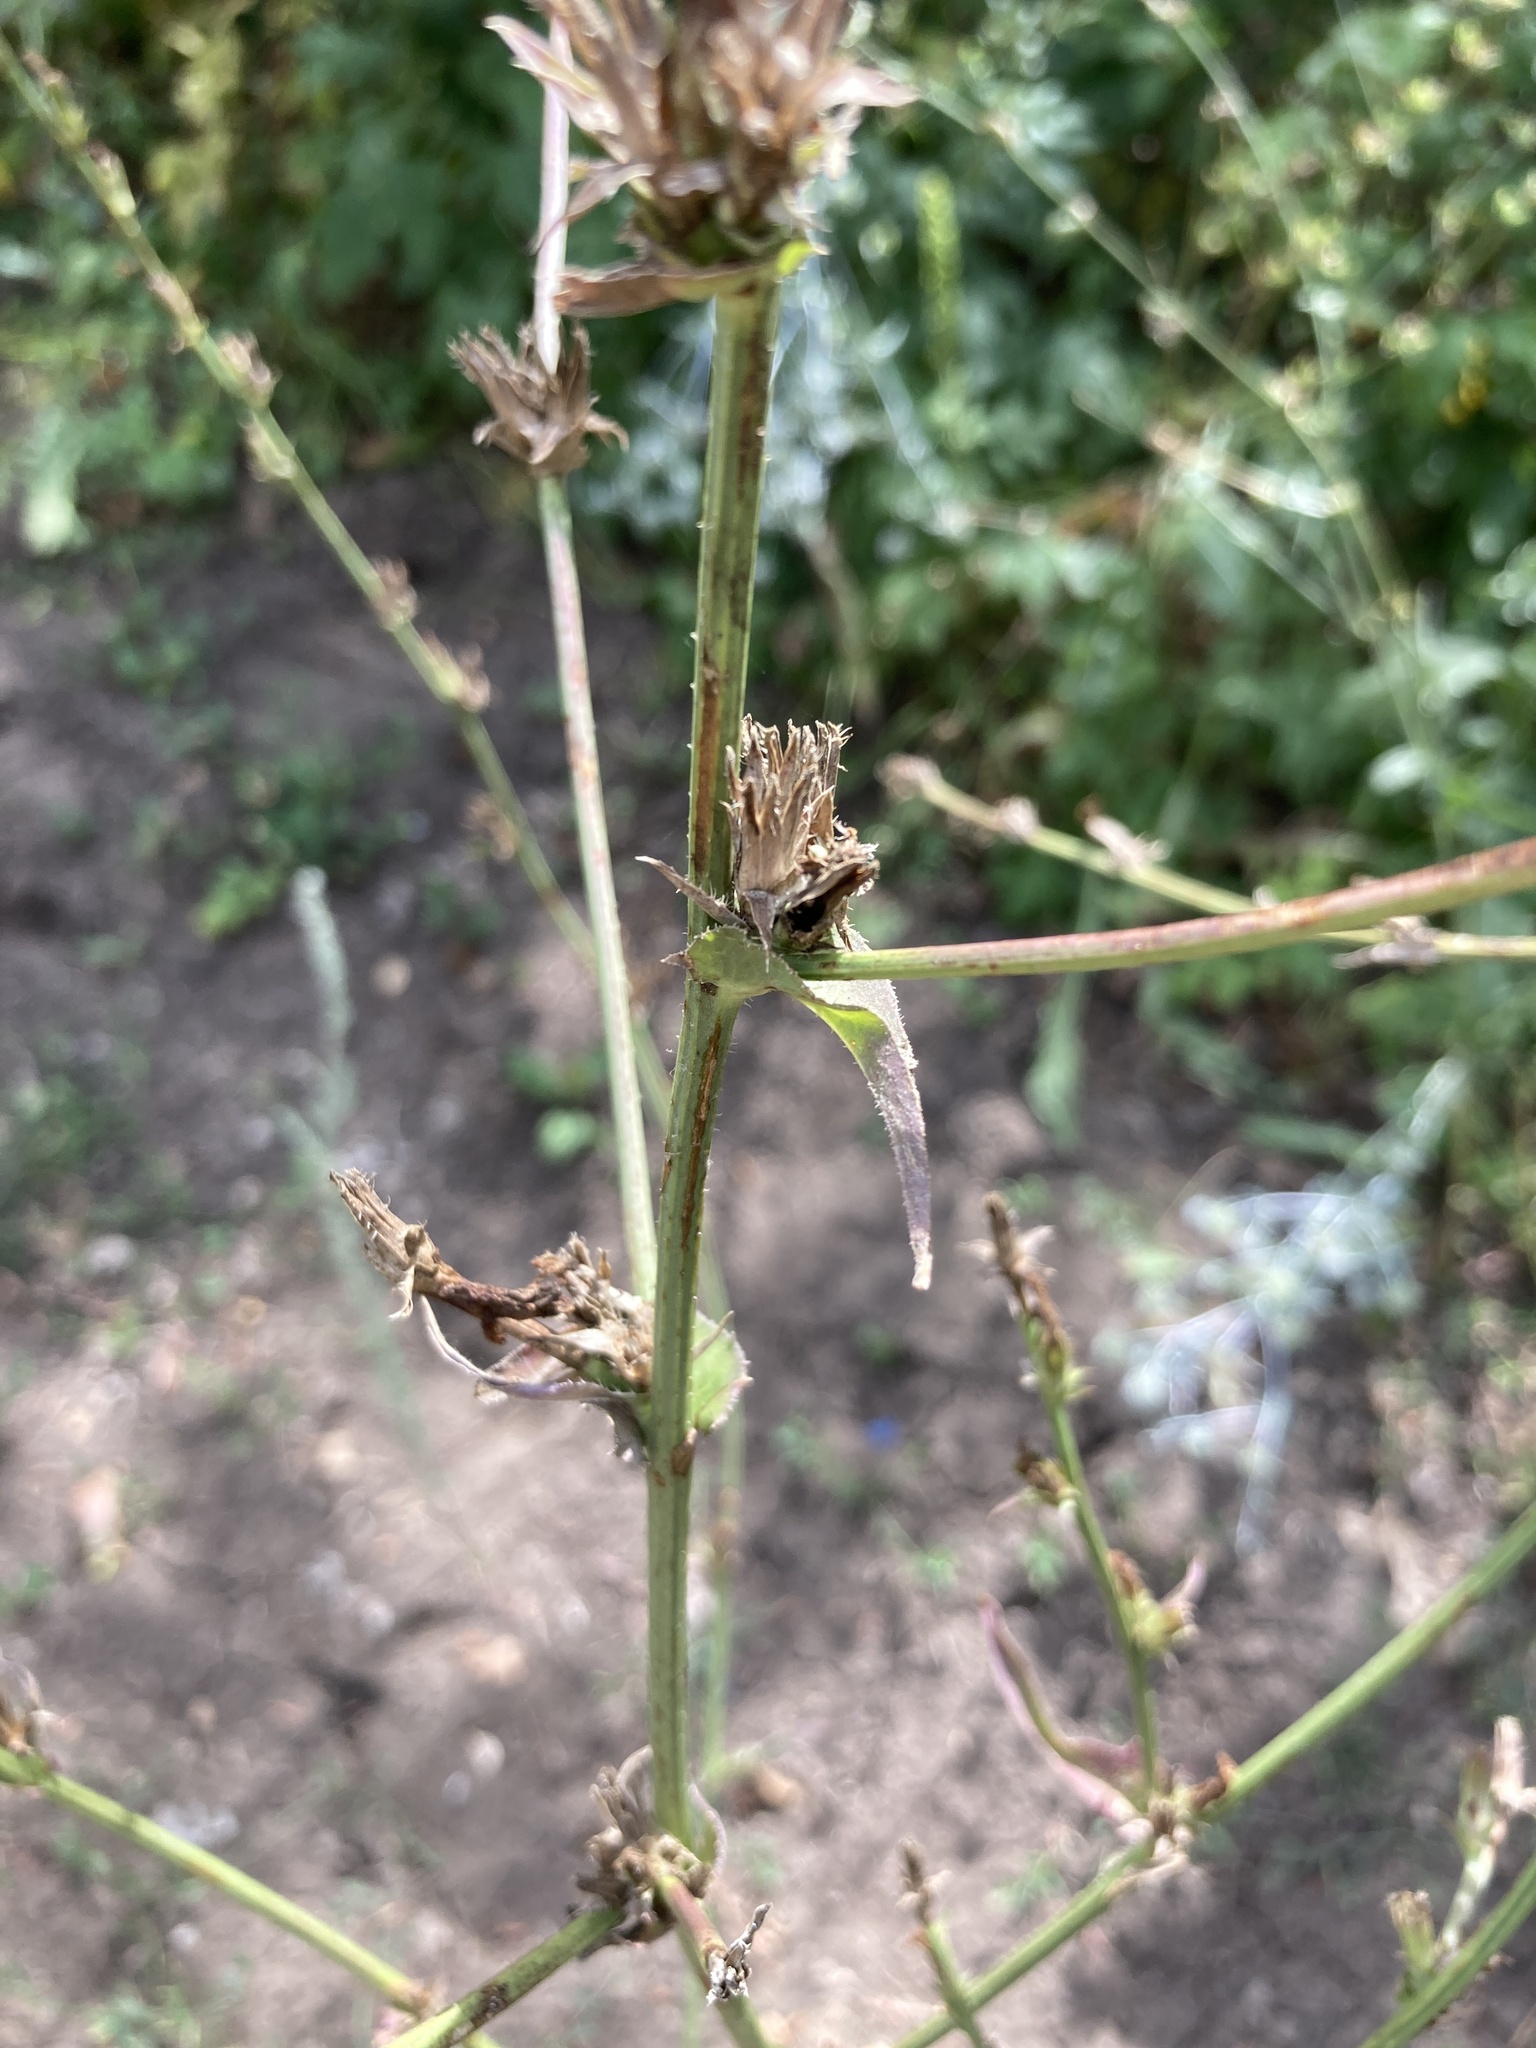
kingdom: Plantae
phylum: Tracheophyta
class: Magnoliopsida
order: Asterales
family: Asteraceae
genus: Cichorium
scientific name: Cichorium intybus
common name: Chicory
